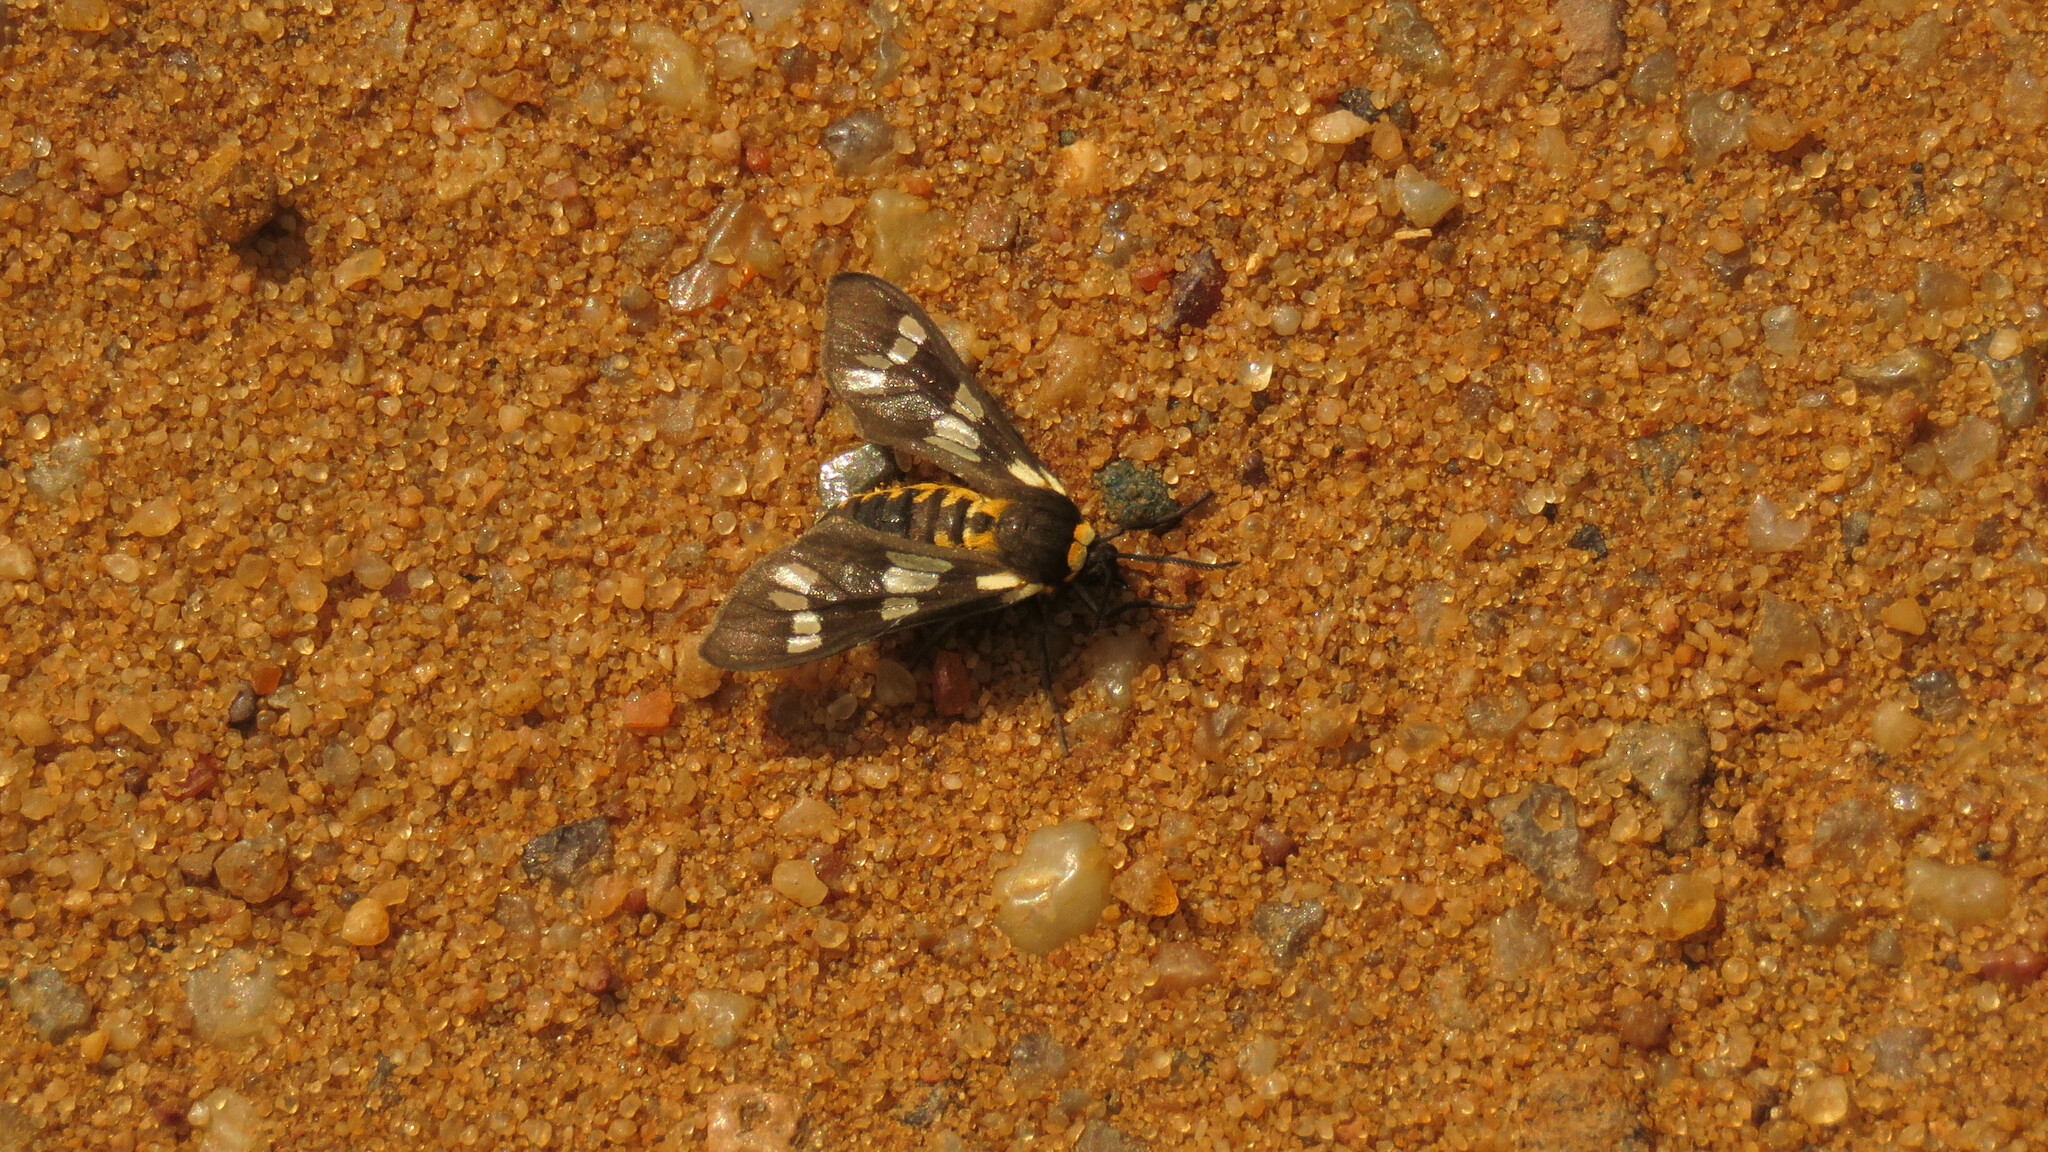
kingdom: Animalia
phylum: Arthropoda
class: Insecta
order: Lepidoptera
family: Erebidae
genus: Eurata
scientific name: Eurata
